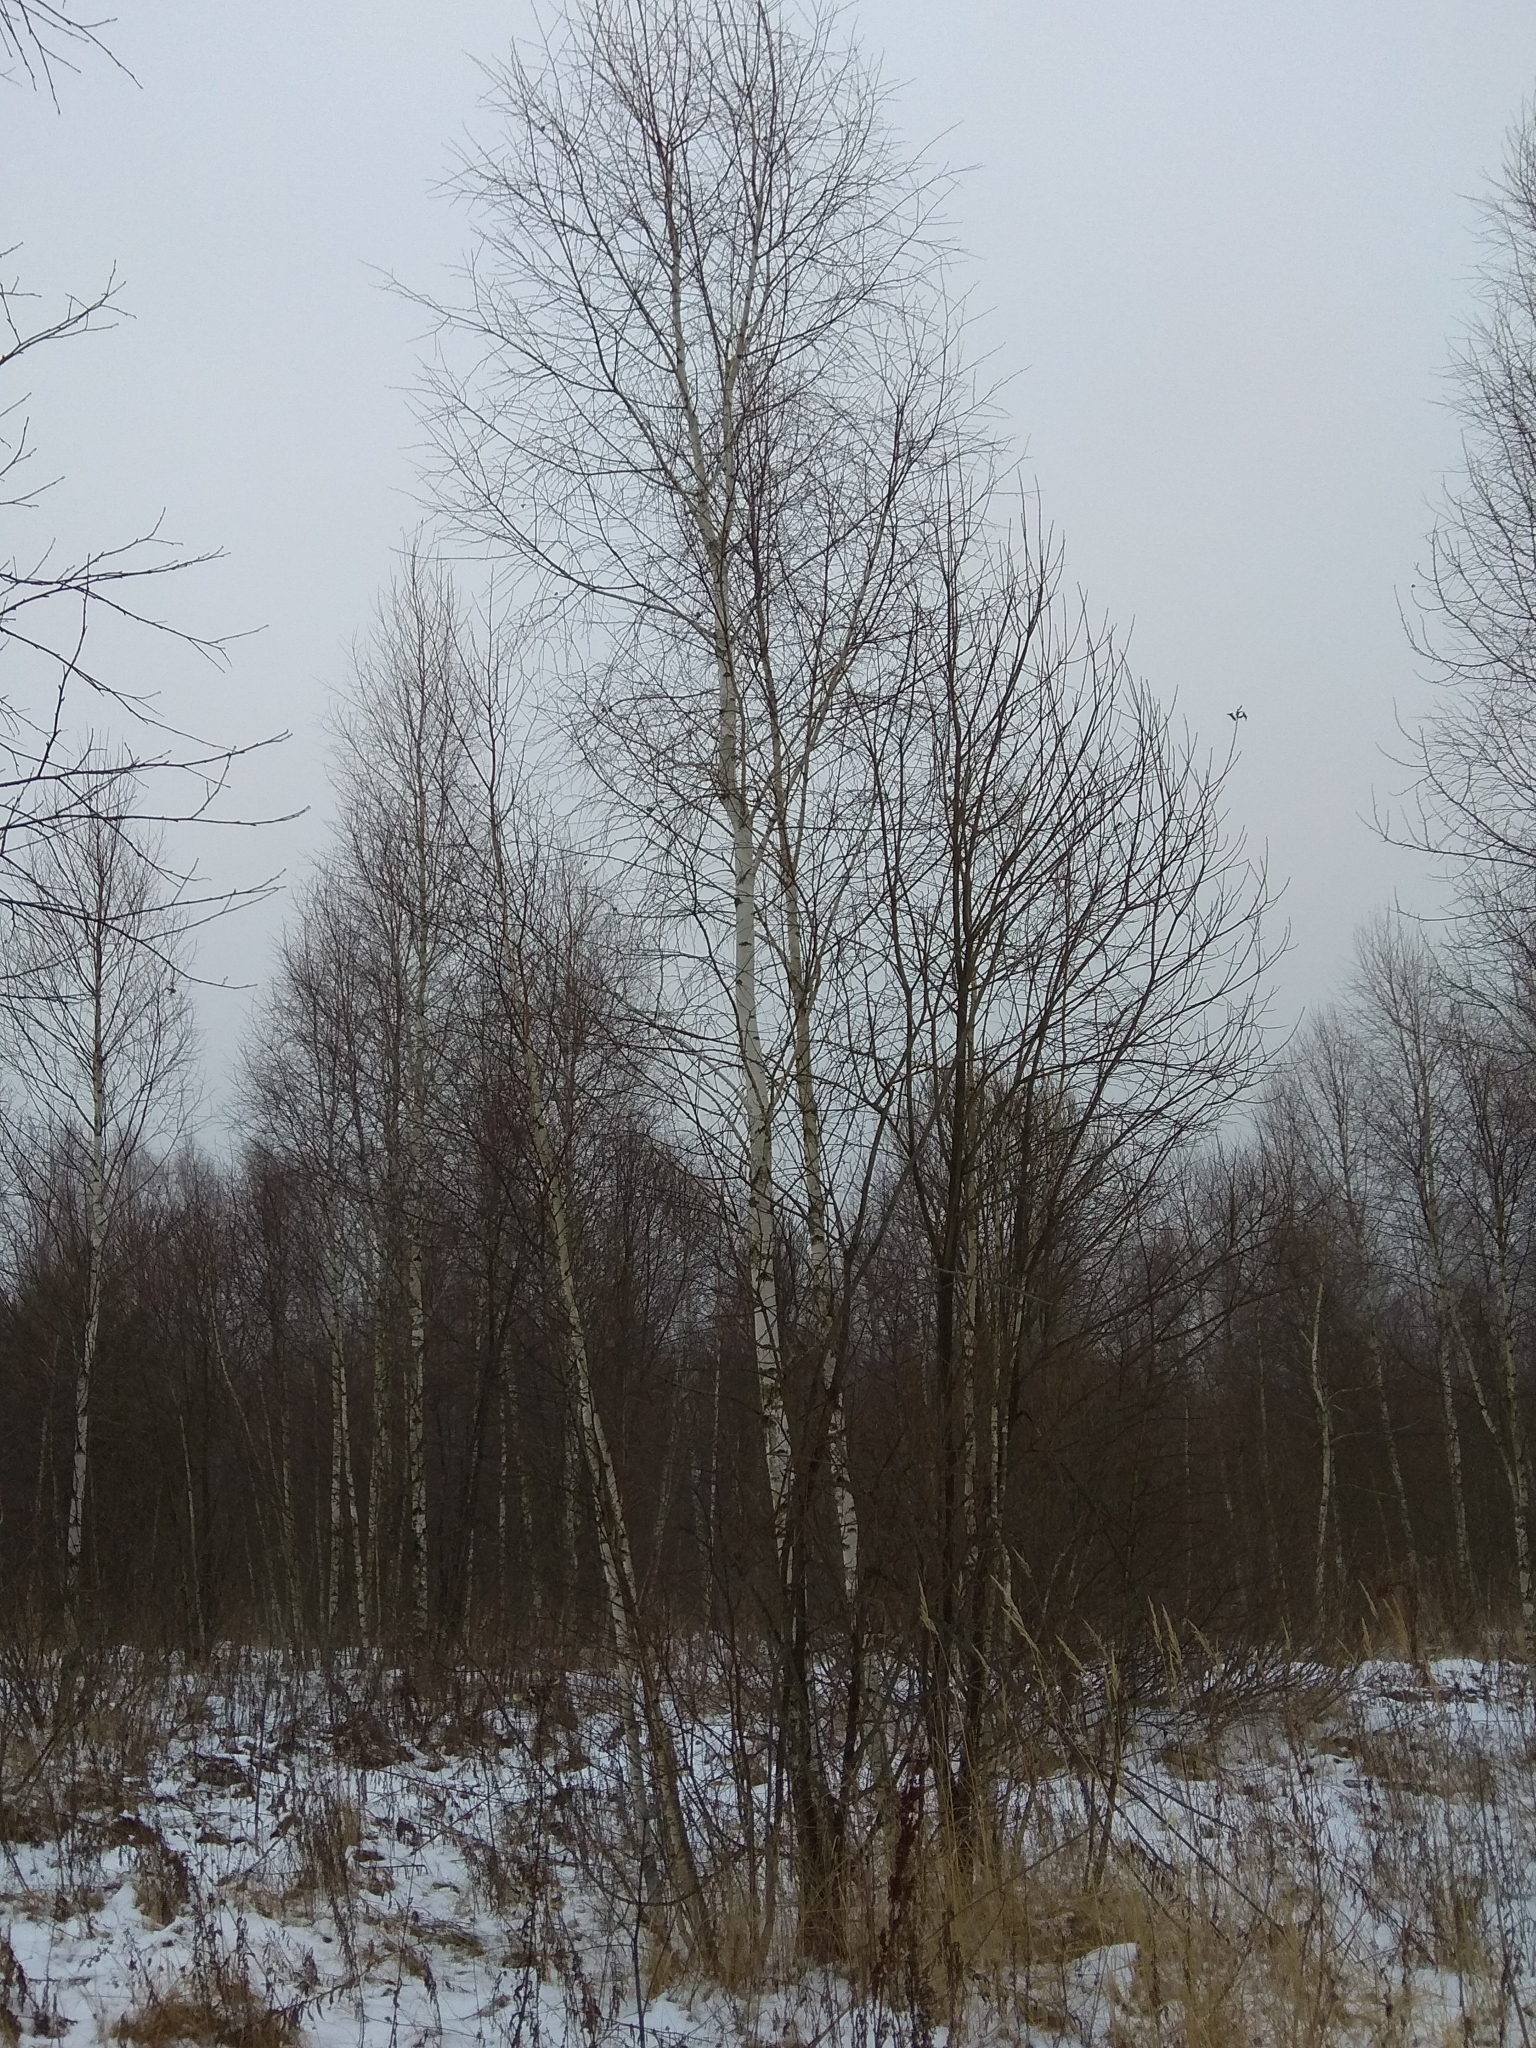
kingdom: Plantae
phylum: Tracheophyta
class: Magnoliopsida
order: Fagales
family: Betulaceae
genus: Betula
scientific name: Betula pendula
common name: Silver birch
